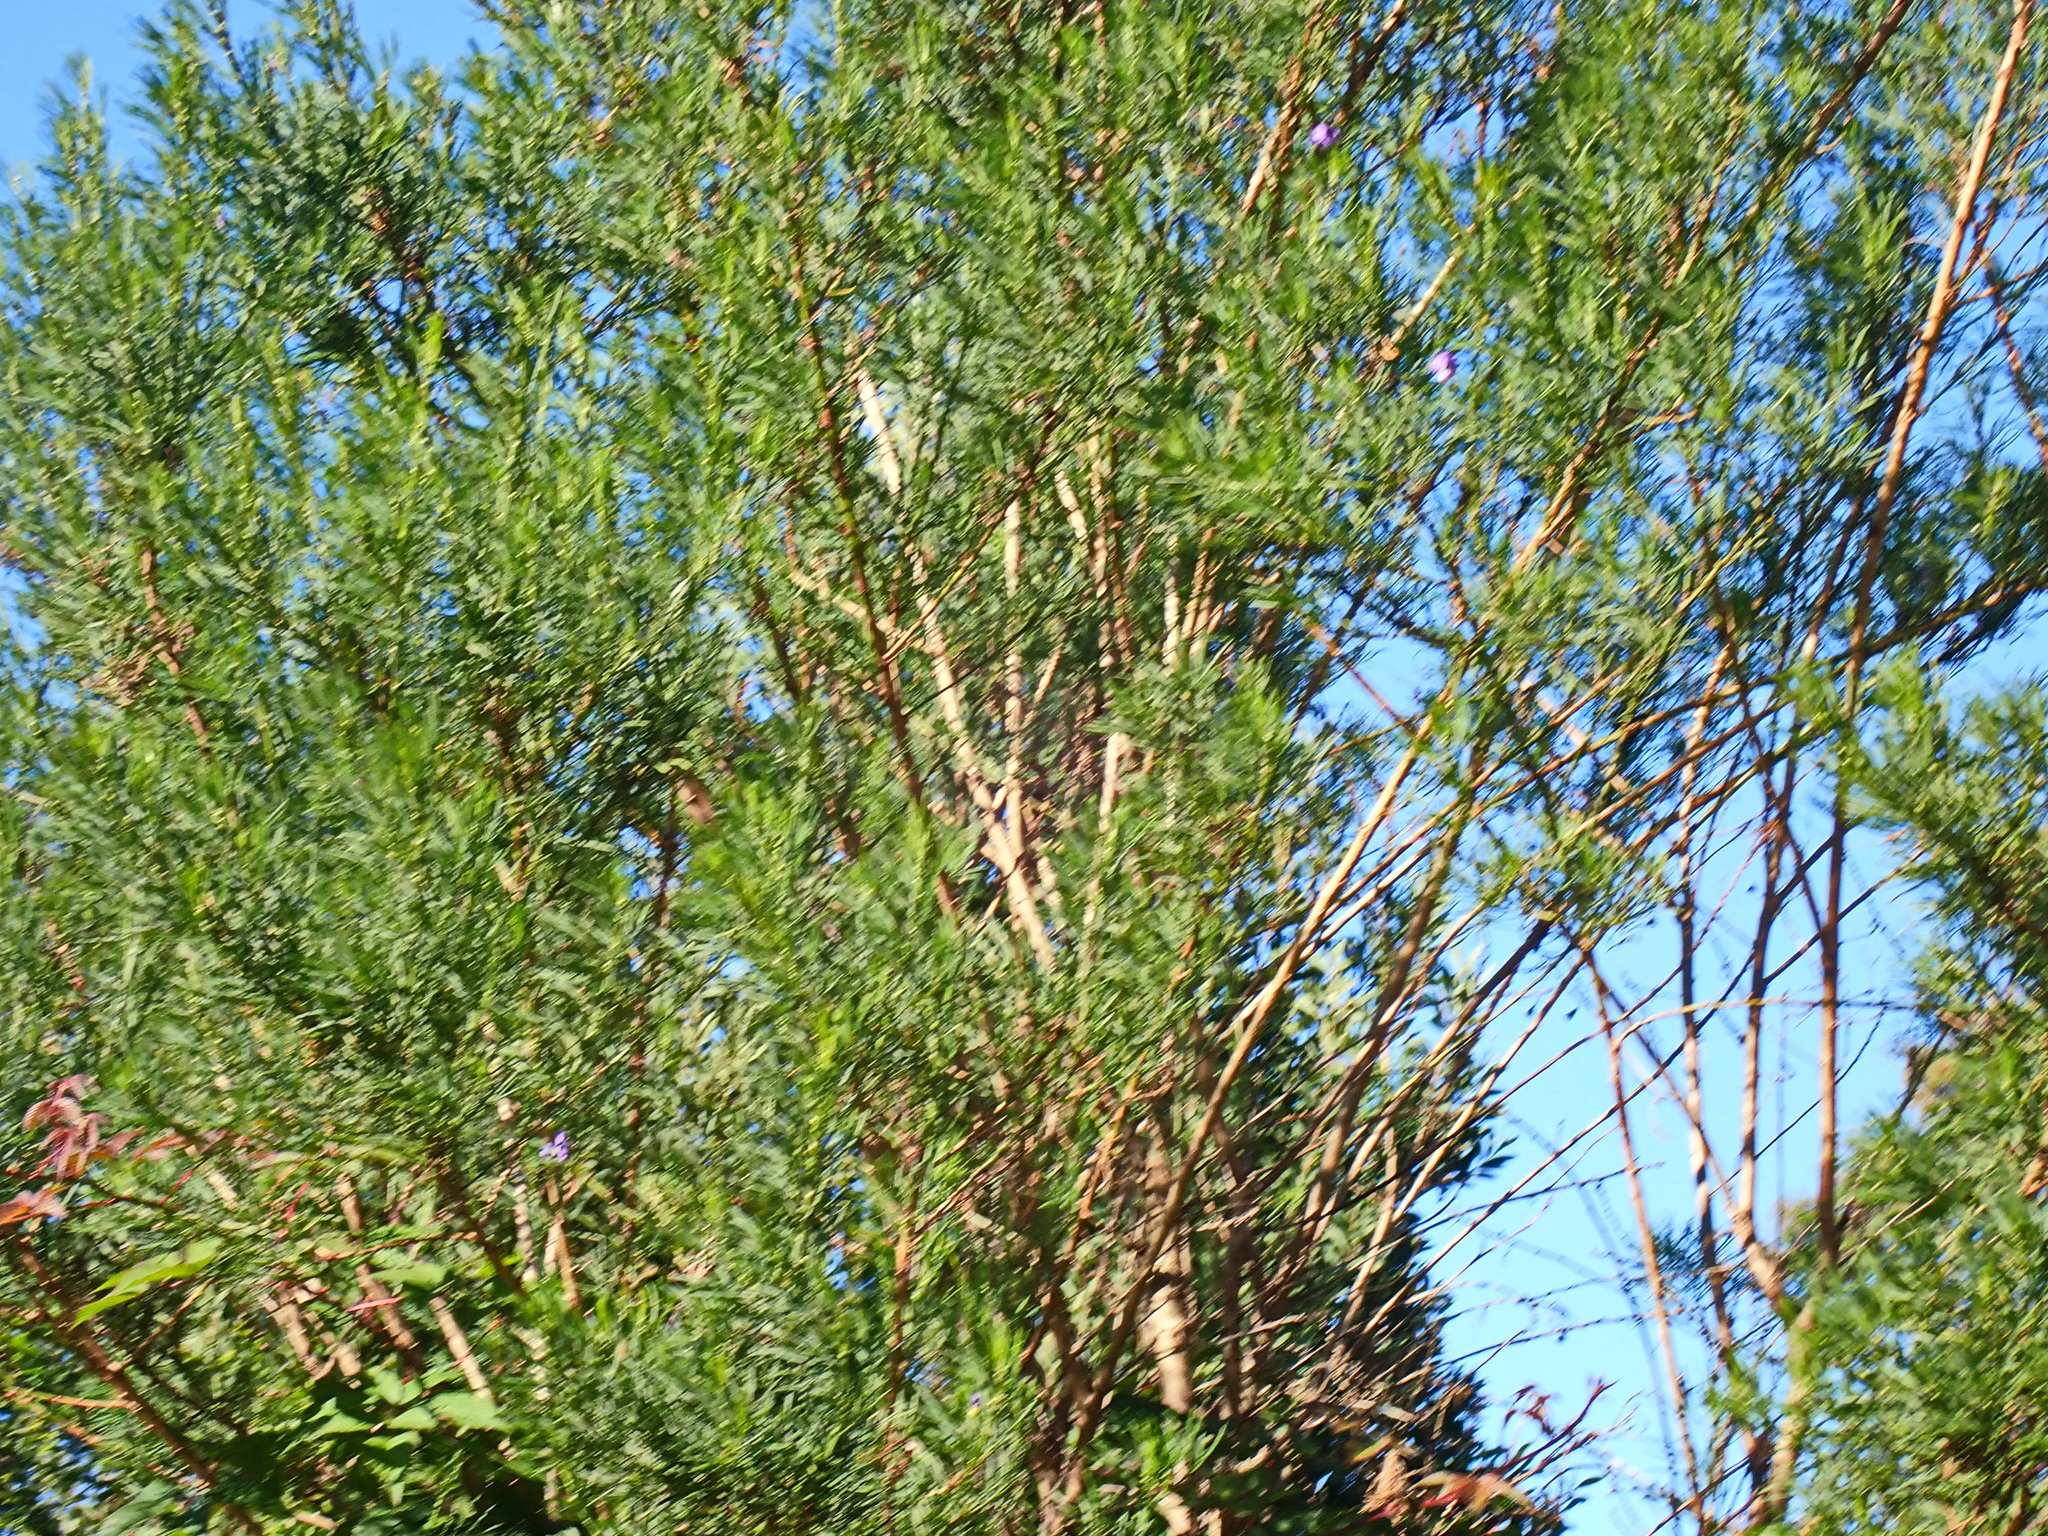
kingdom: Plantae
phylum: Tracheophyta
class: Magnoliopsida
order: Fabales
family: Fabaceae
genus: Psoralea
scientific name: Psoralea arborea
